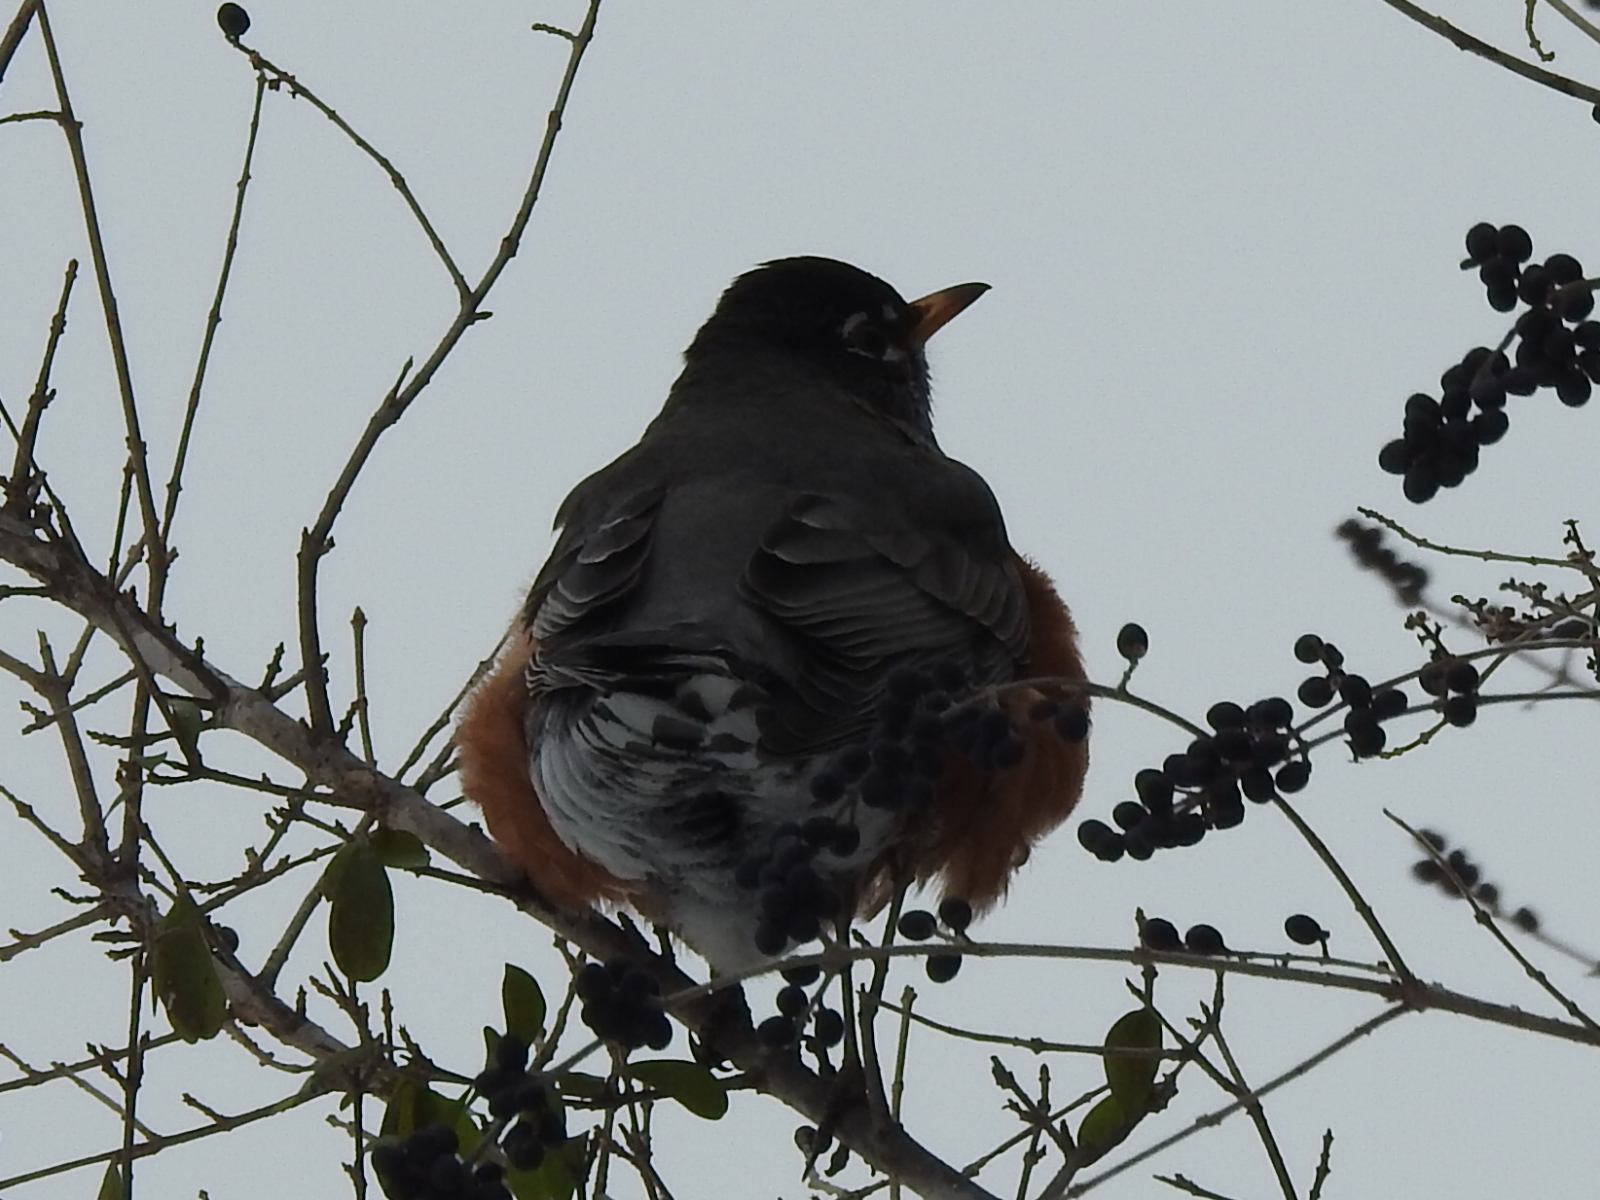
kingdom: Animalia
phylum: Chordata
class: Aves
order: Passeriformes
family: Turdidae
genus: Turdus
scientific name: Turdus migratorius
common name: American robin
